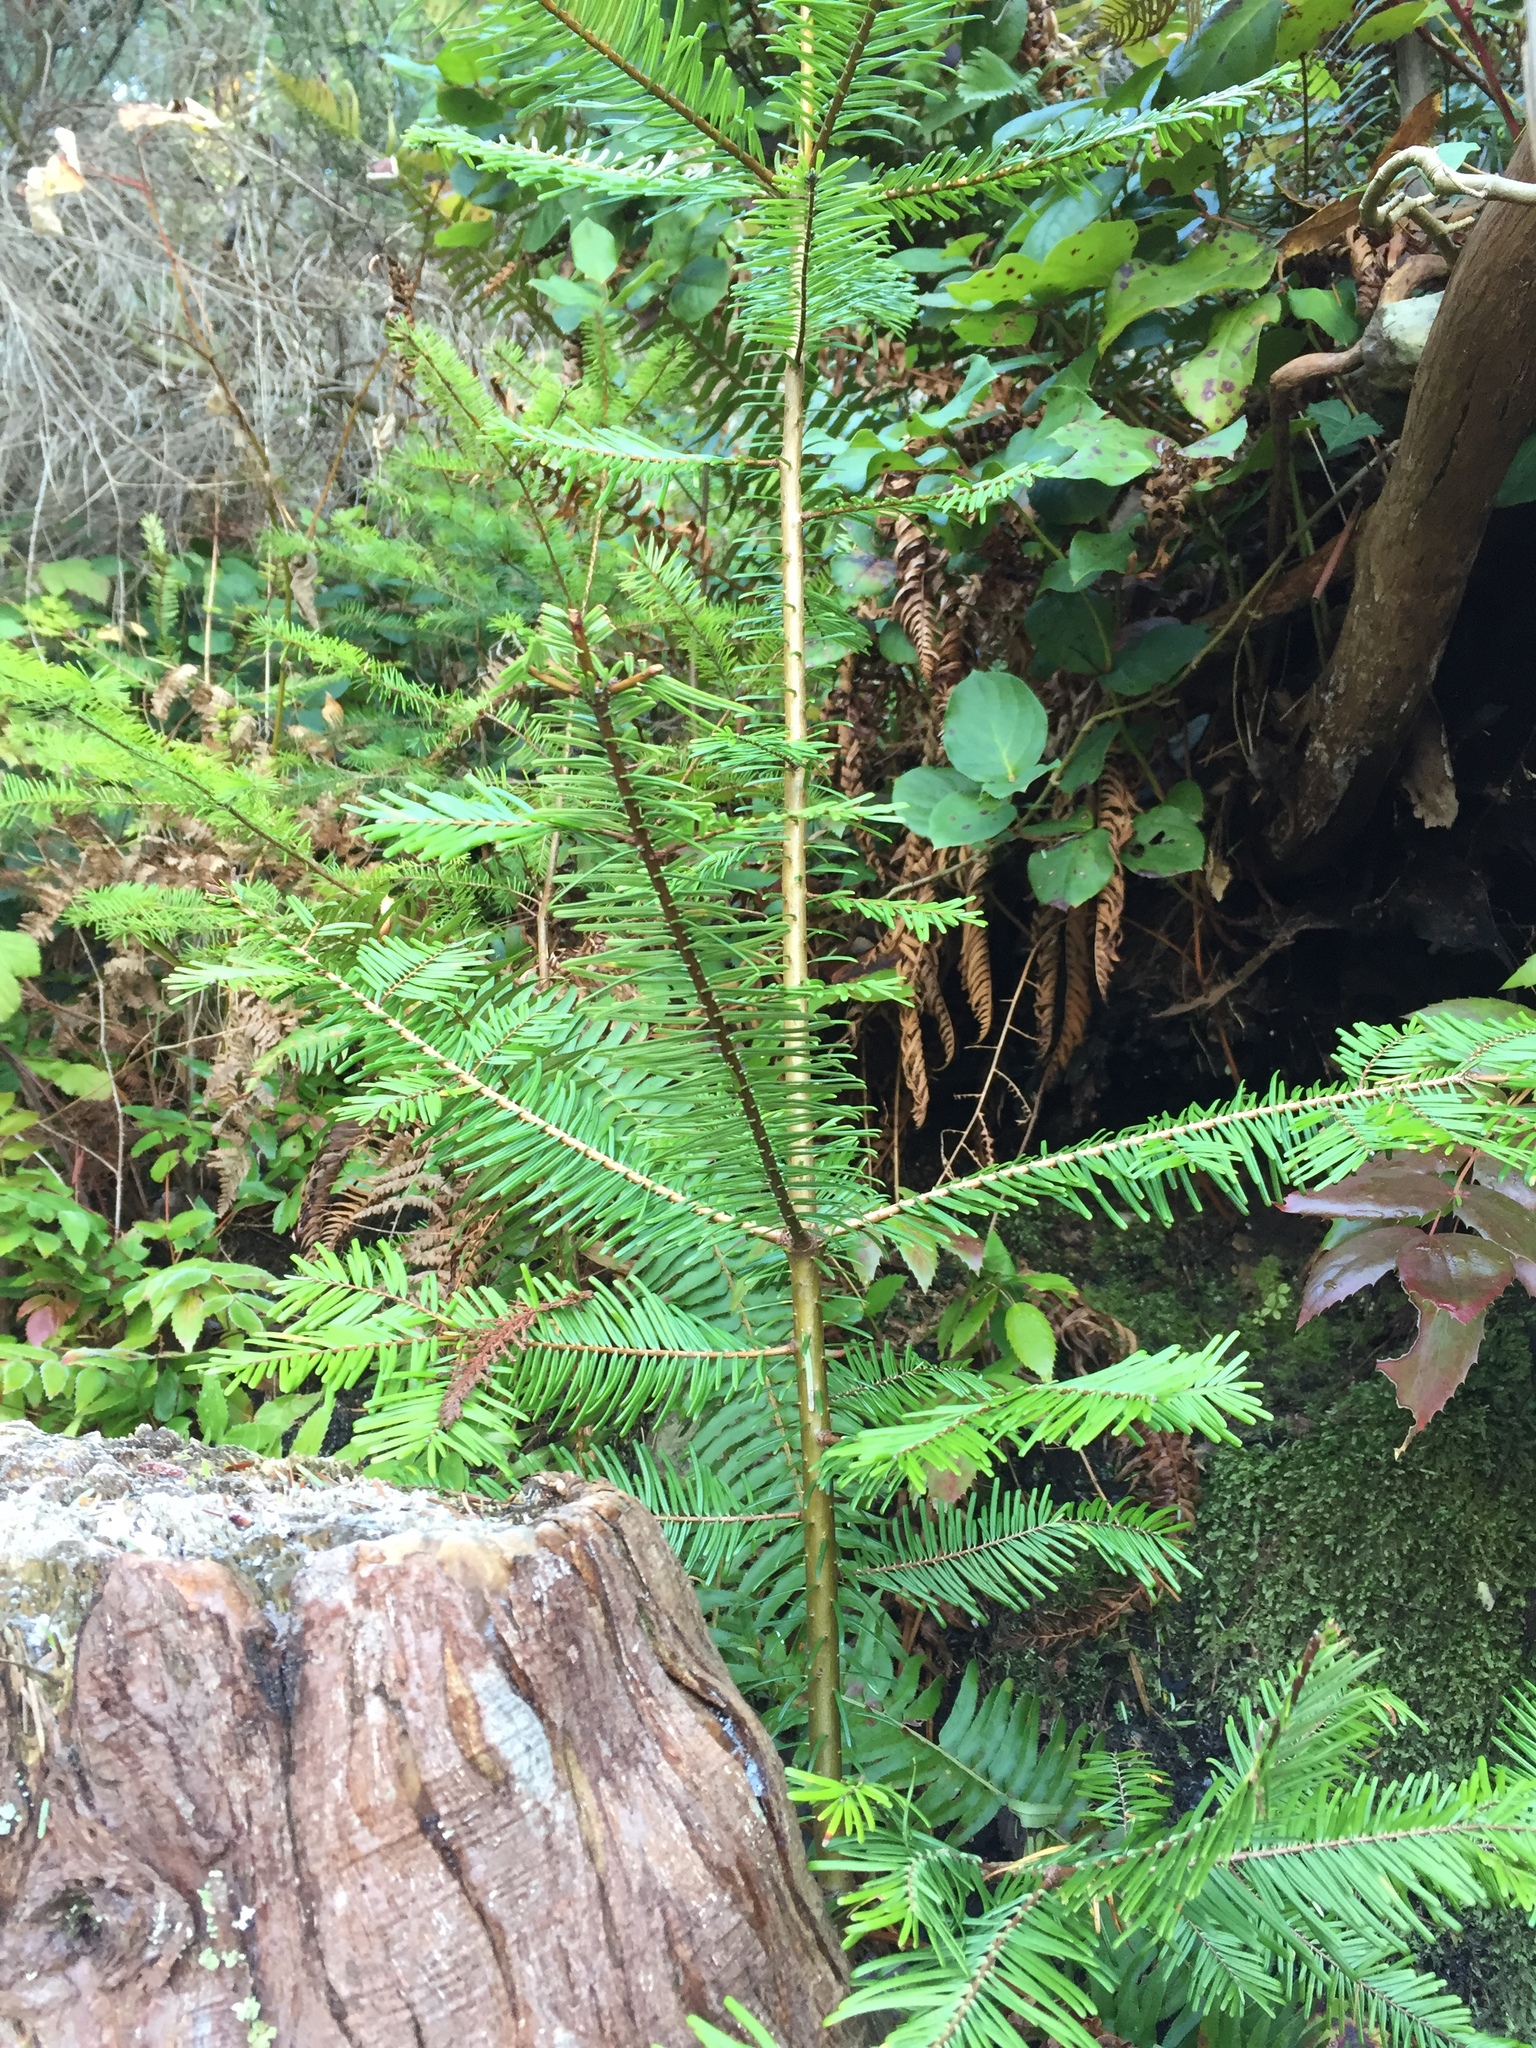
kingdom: Plantae
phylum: Tracheophyta
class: Pinopsida
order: Pinales
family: Pinaceae
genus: Abies
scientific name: Abies grandis
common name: Giant fir
